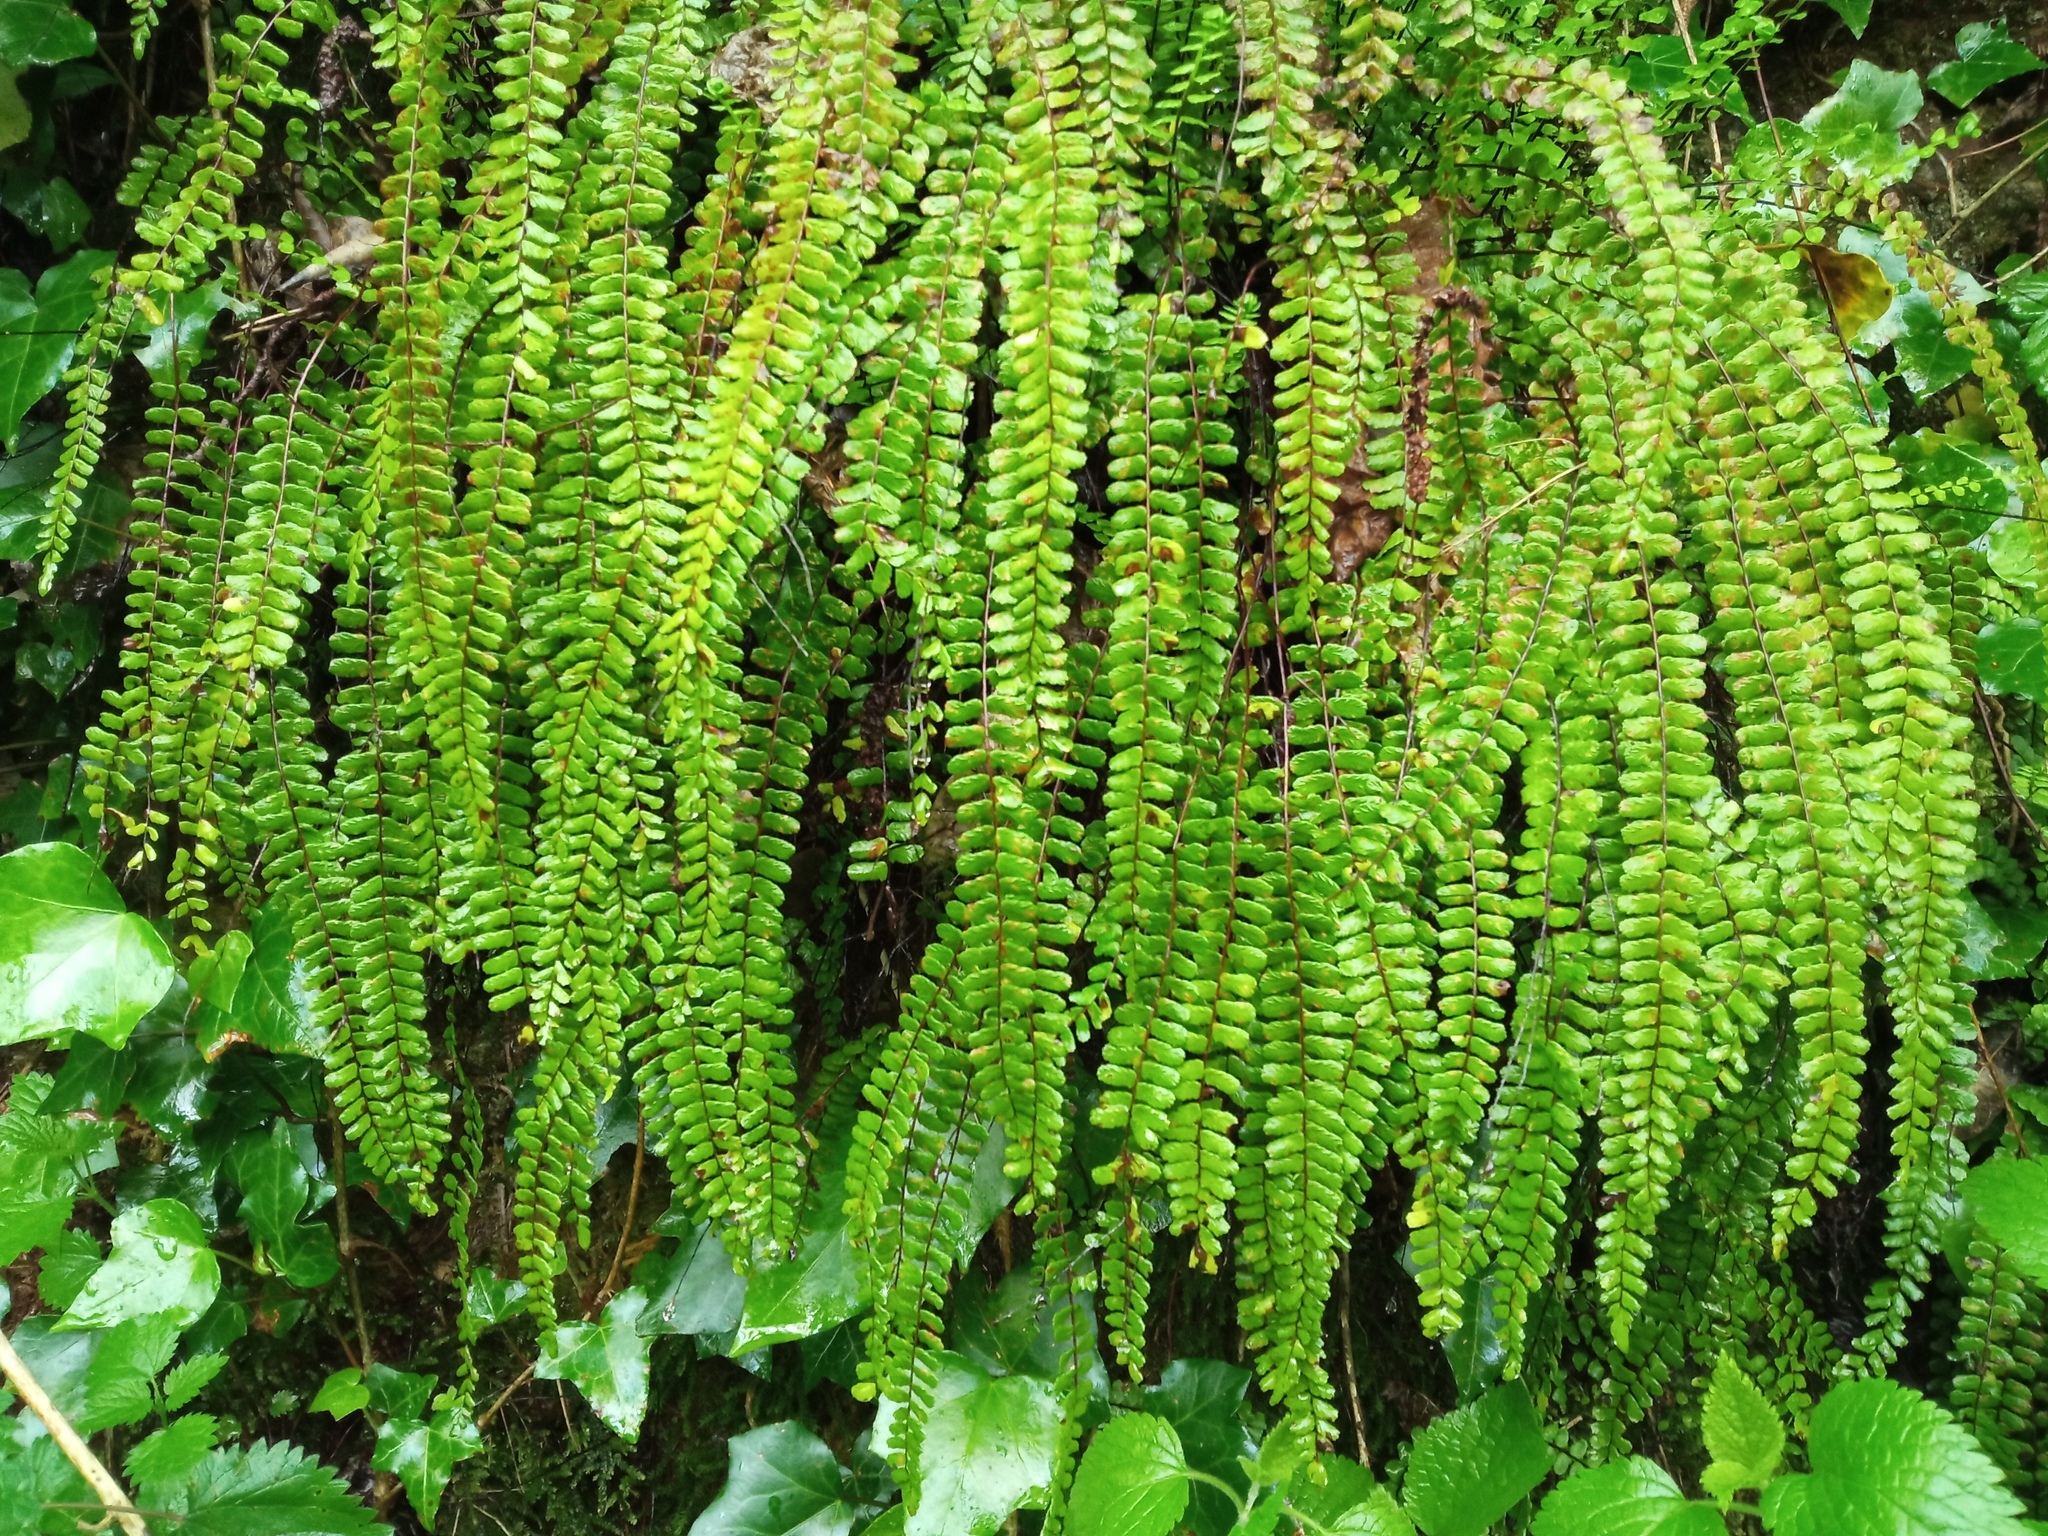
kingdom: Plantae
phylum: Tracheophyta
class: Polypodiopsida
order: Polypodiales
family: Aspleniaceae
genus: Asplenium
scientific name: Asplenium trichomanes
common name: Maidenhair spleenwort
